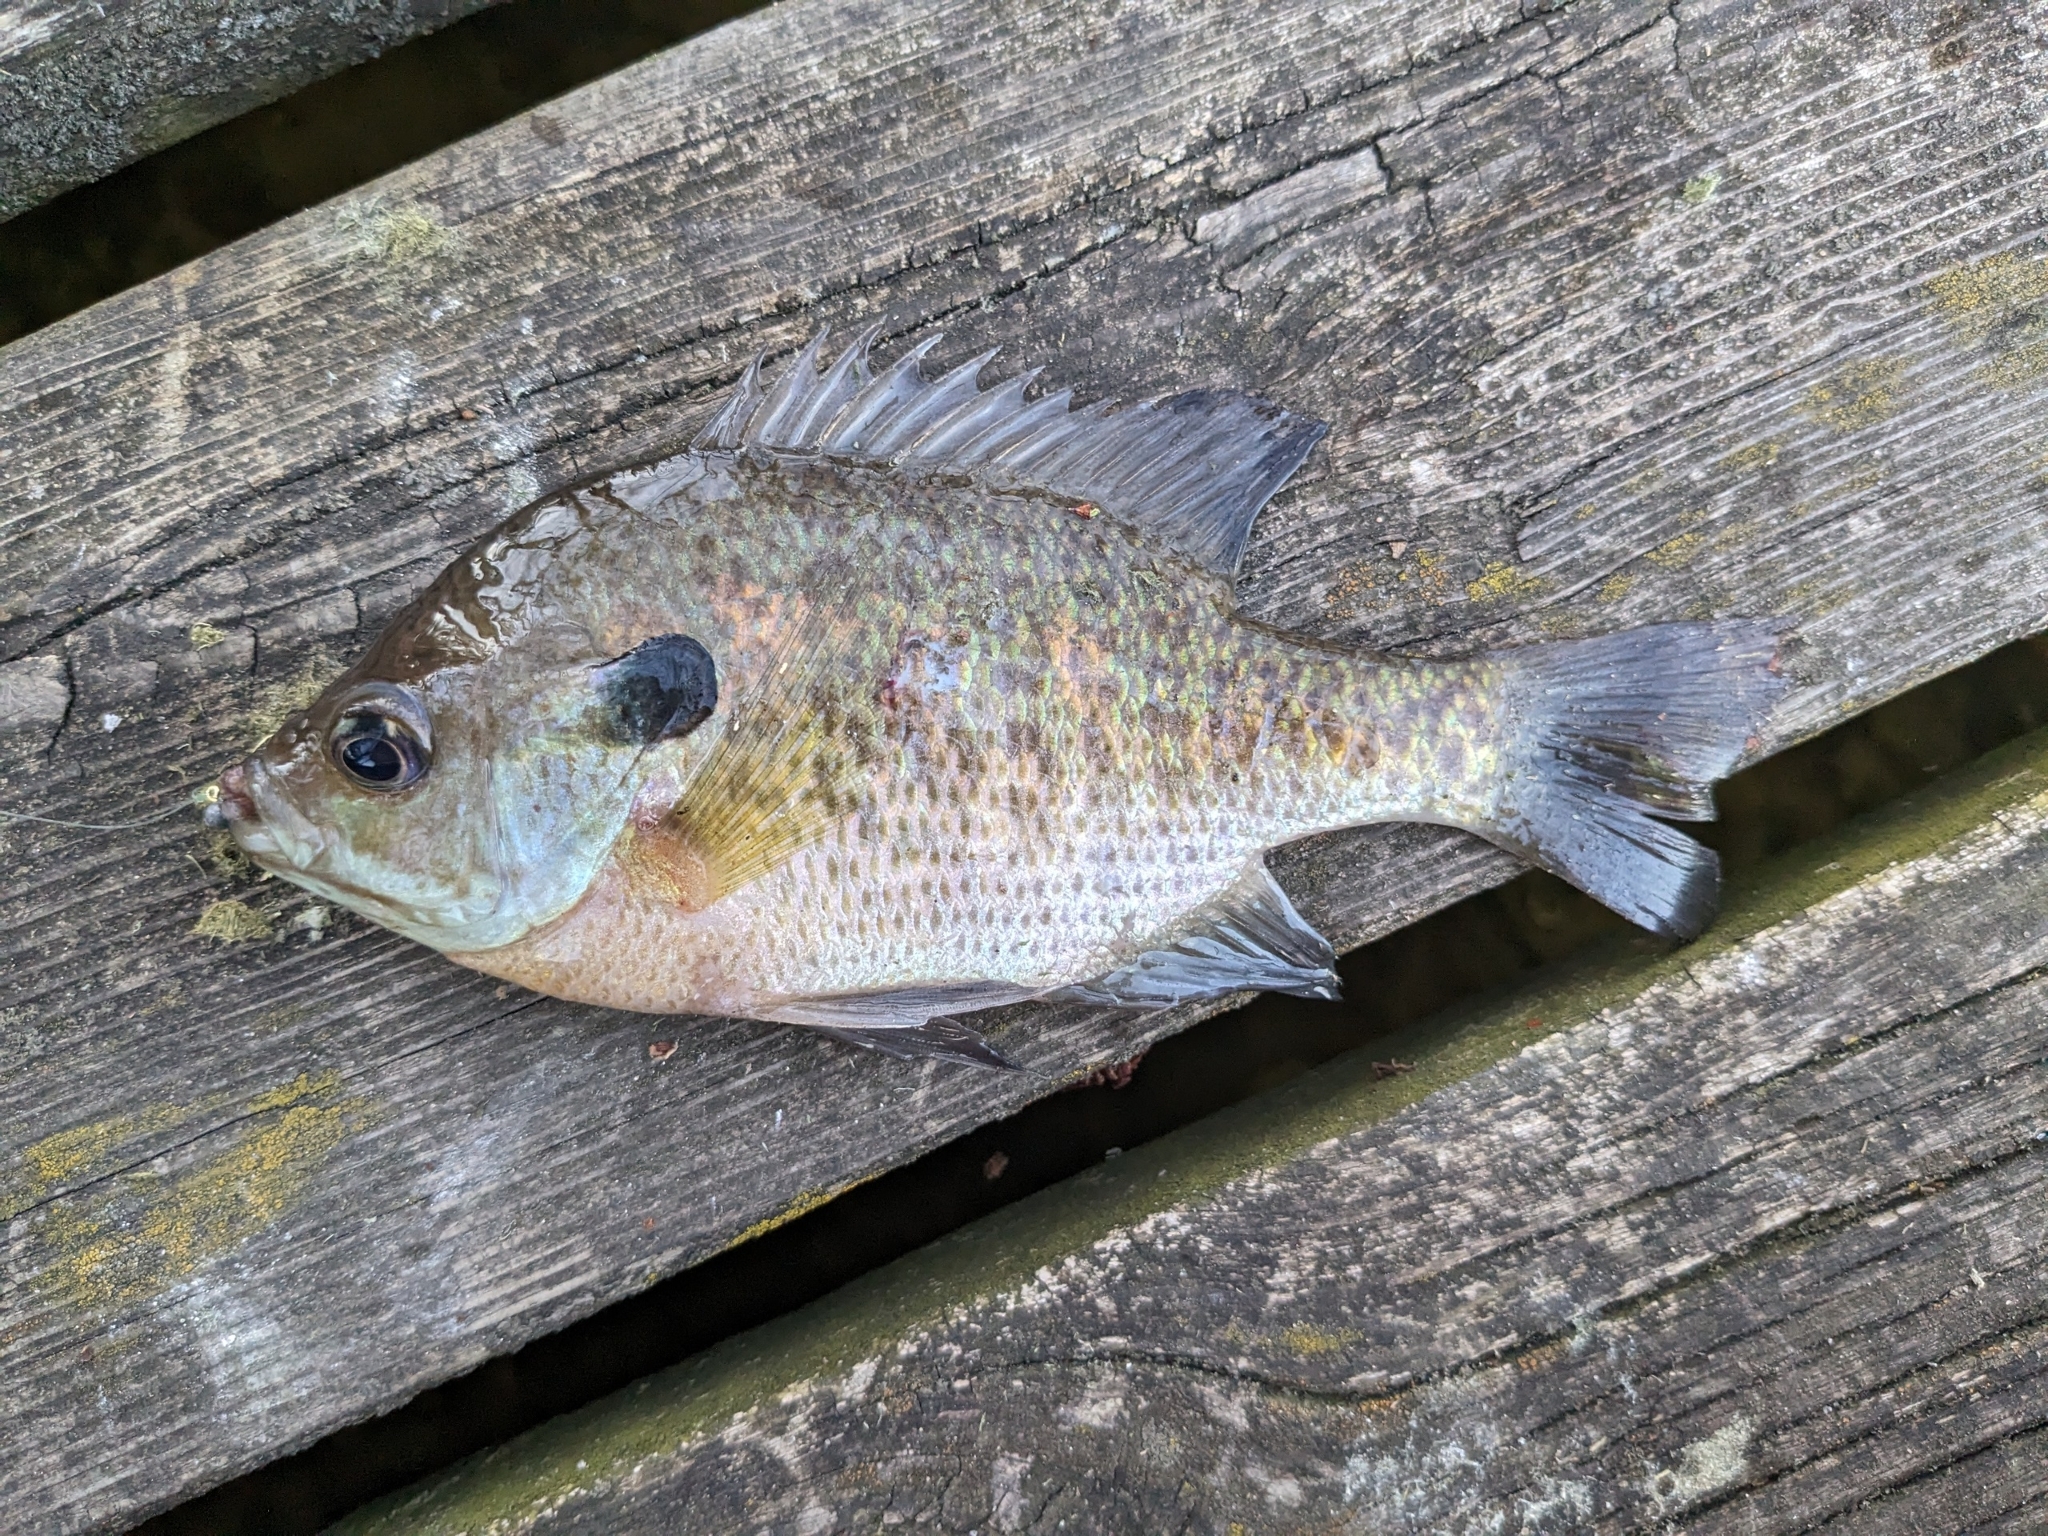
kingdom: Animalia
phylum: Chordata
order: Perciformes
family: Centrarchidae
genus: Lepomis
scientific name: Lepomis macrochirus
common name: Bluegill
